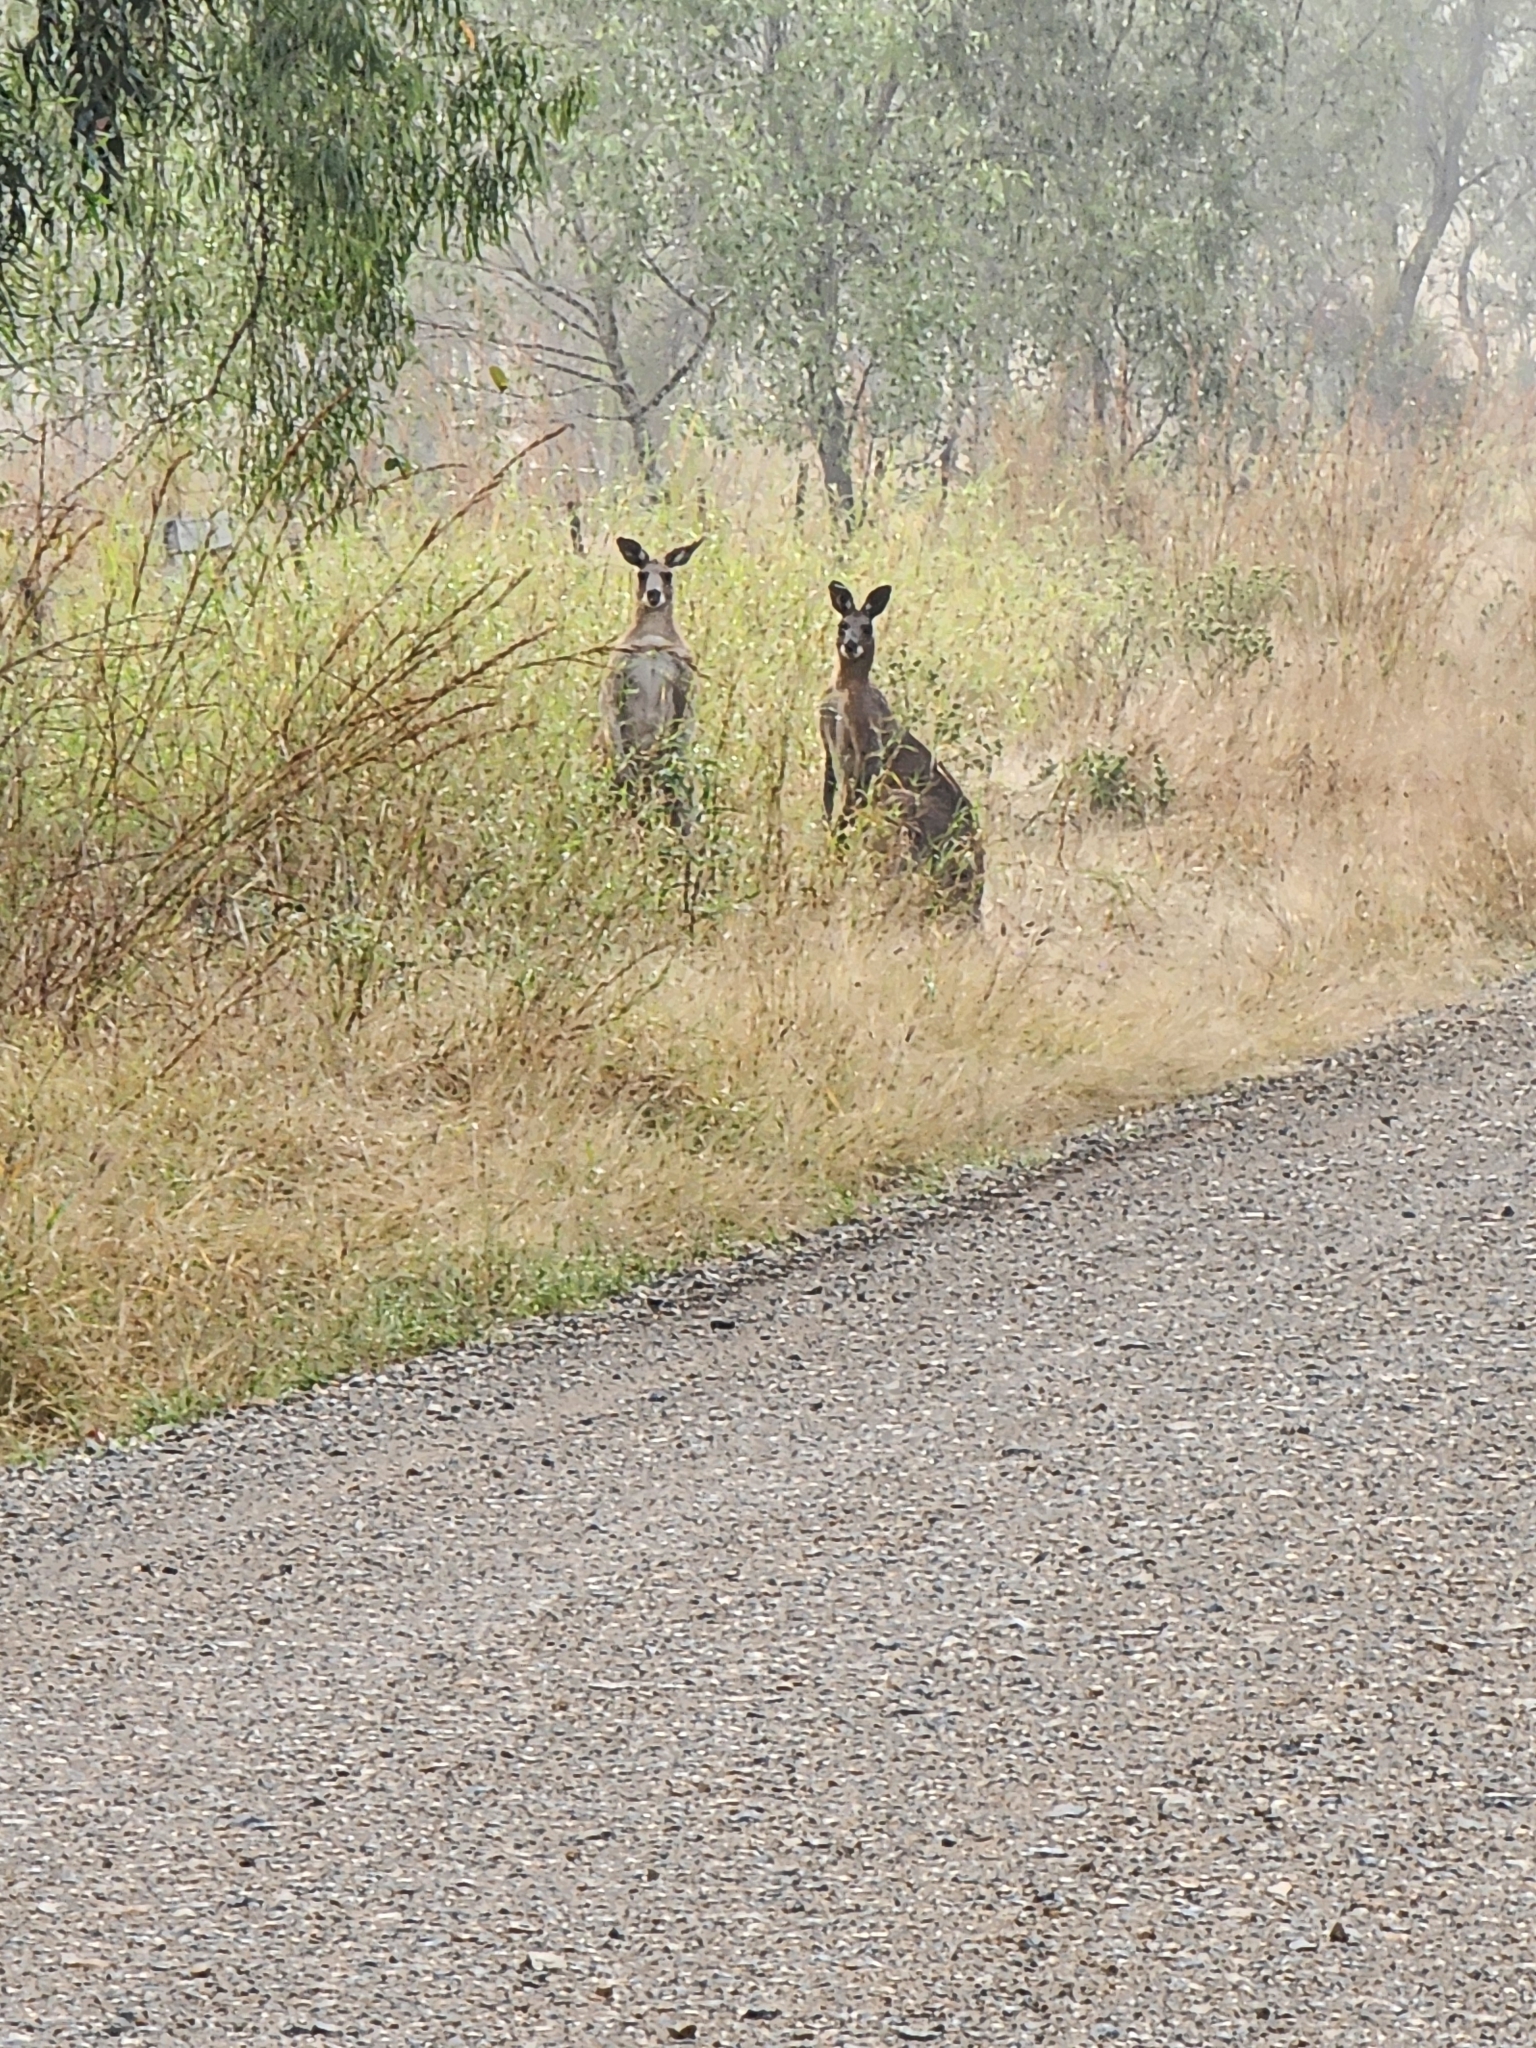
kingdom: Animalia
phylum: Chordata
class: Mammalia
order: Diprotodontia
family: Macropodidae
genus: Macropus
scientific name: Macropus giganteus
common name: Eastern grey kangaroo
